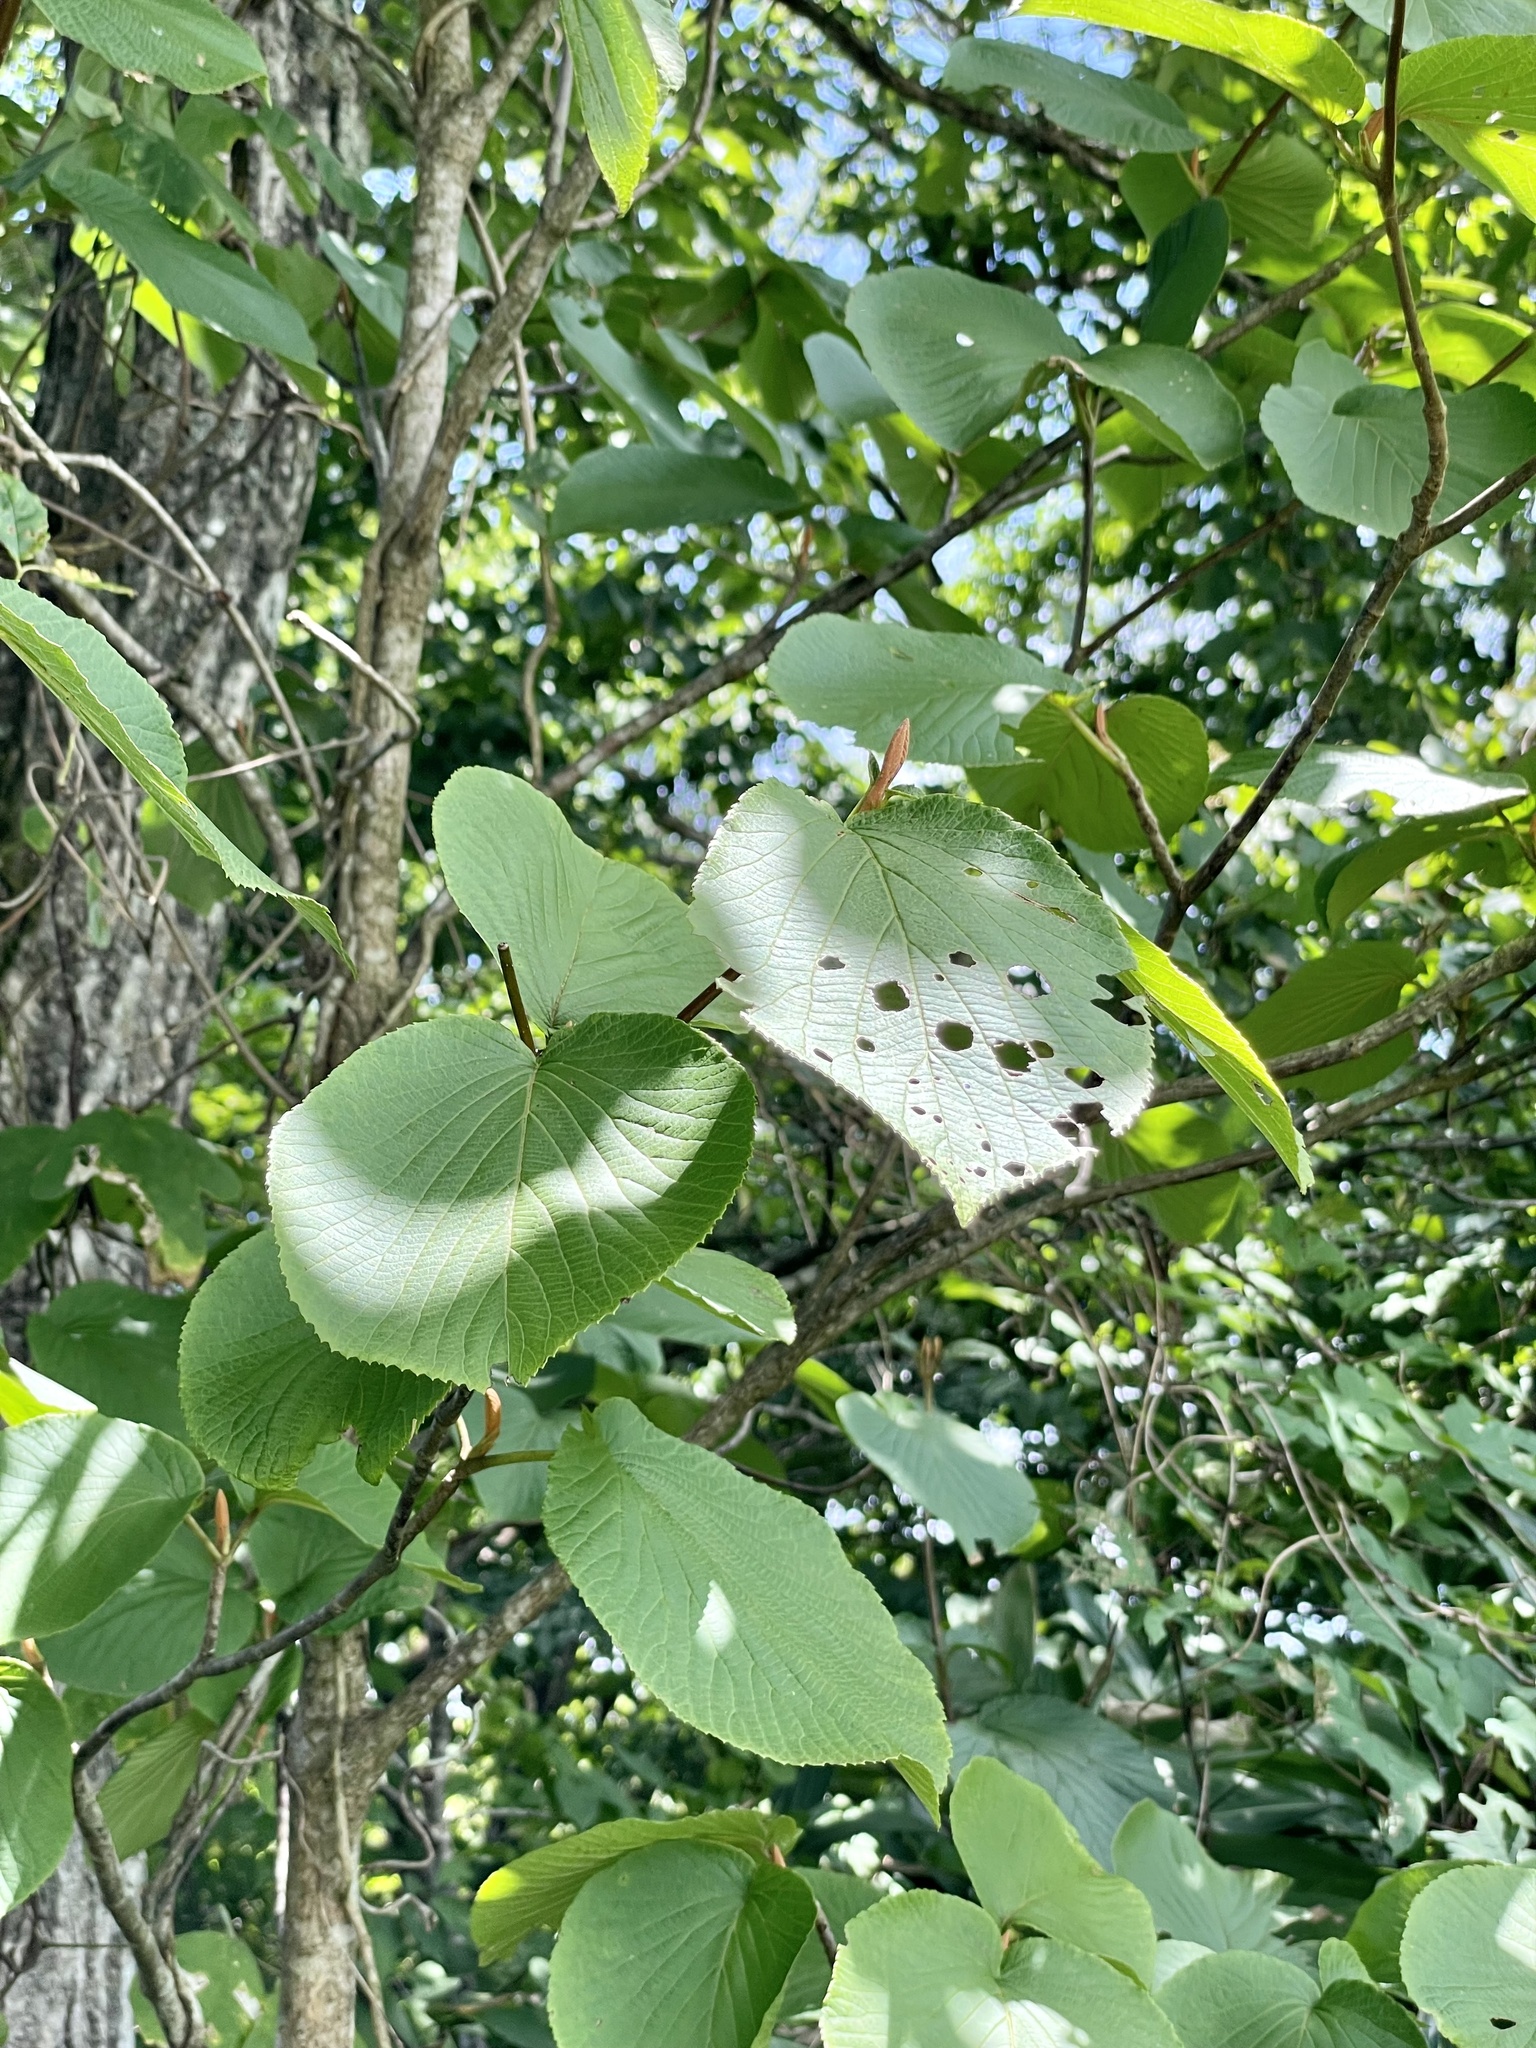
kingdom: Plantae
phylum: Tracheophyta
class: Magnoliopsida
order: Dipsacales
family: Viburnaceae
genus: Viburnum
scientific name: Viburnum furcatum
